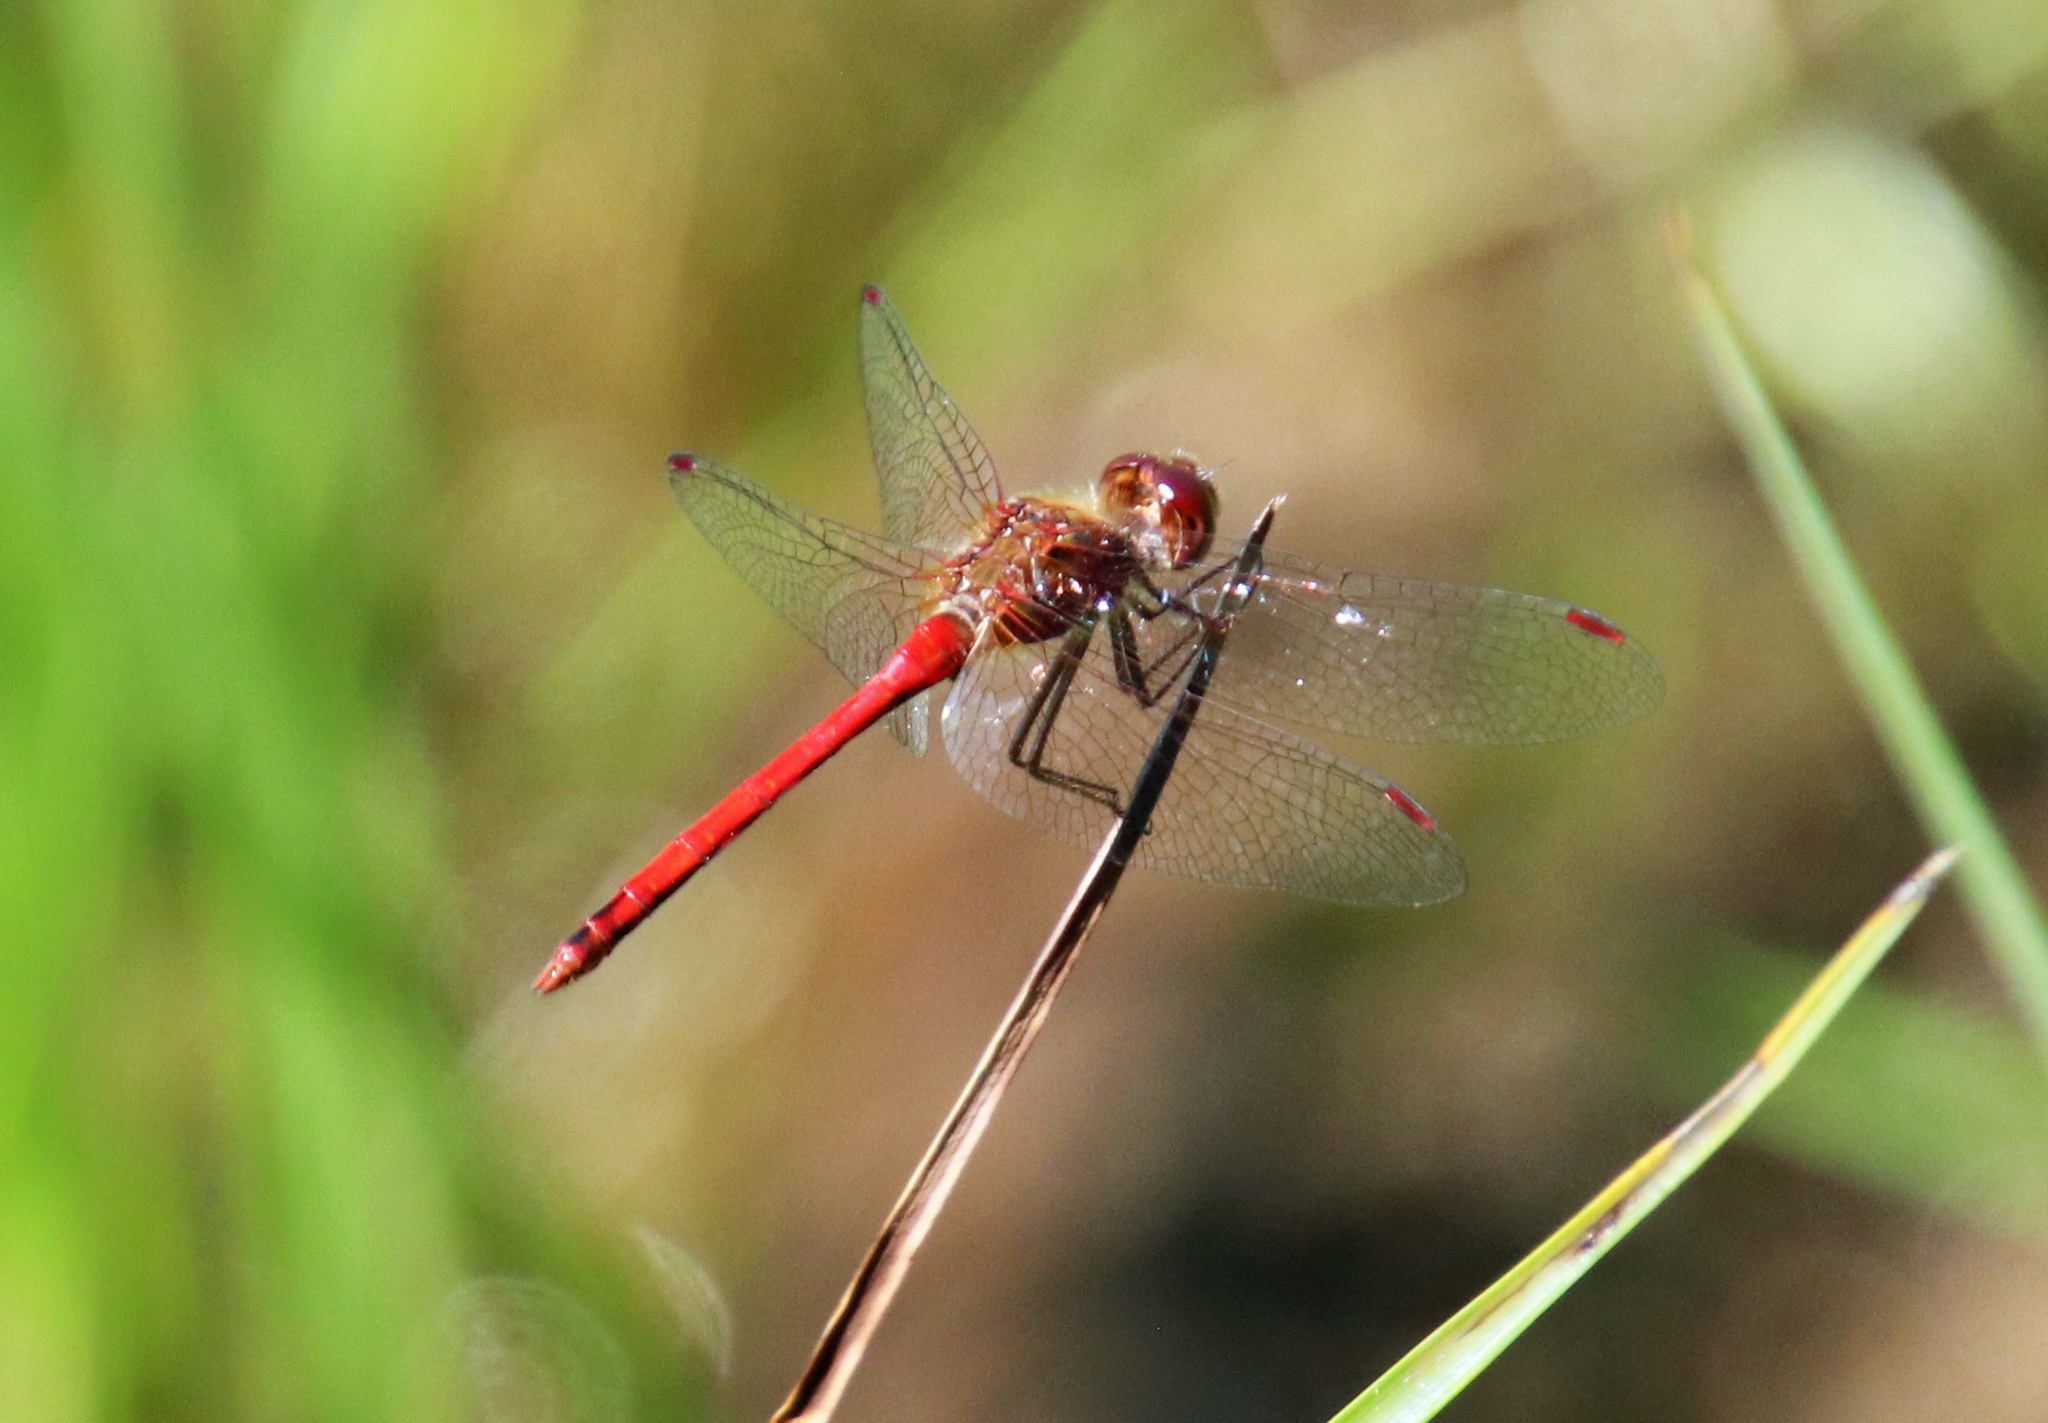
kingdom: Animalia
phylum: Arthropoda
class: Insecta
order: Odonata
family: Libellulidae
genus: Sympetrum
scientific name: Sympetrum vicinum
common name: Autumn meadowhawk
